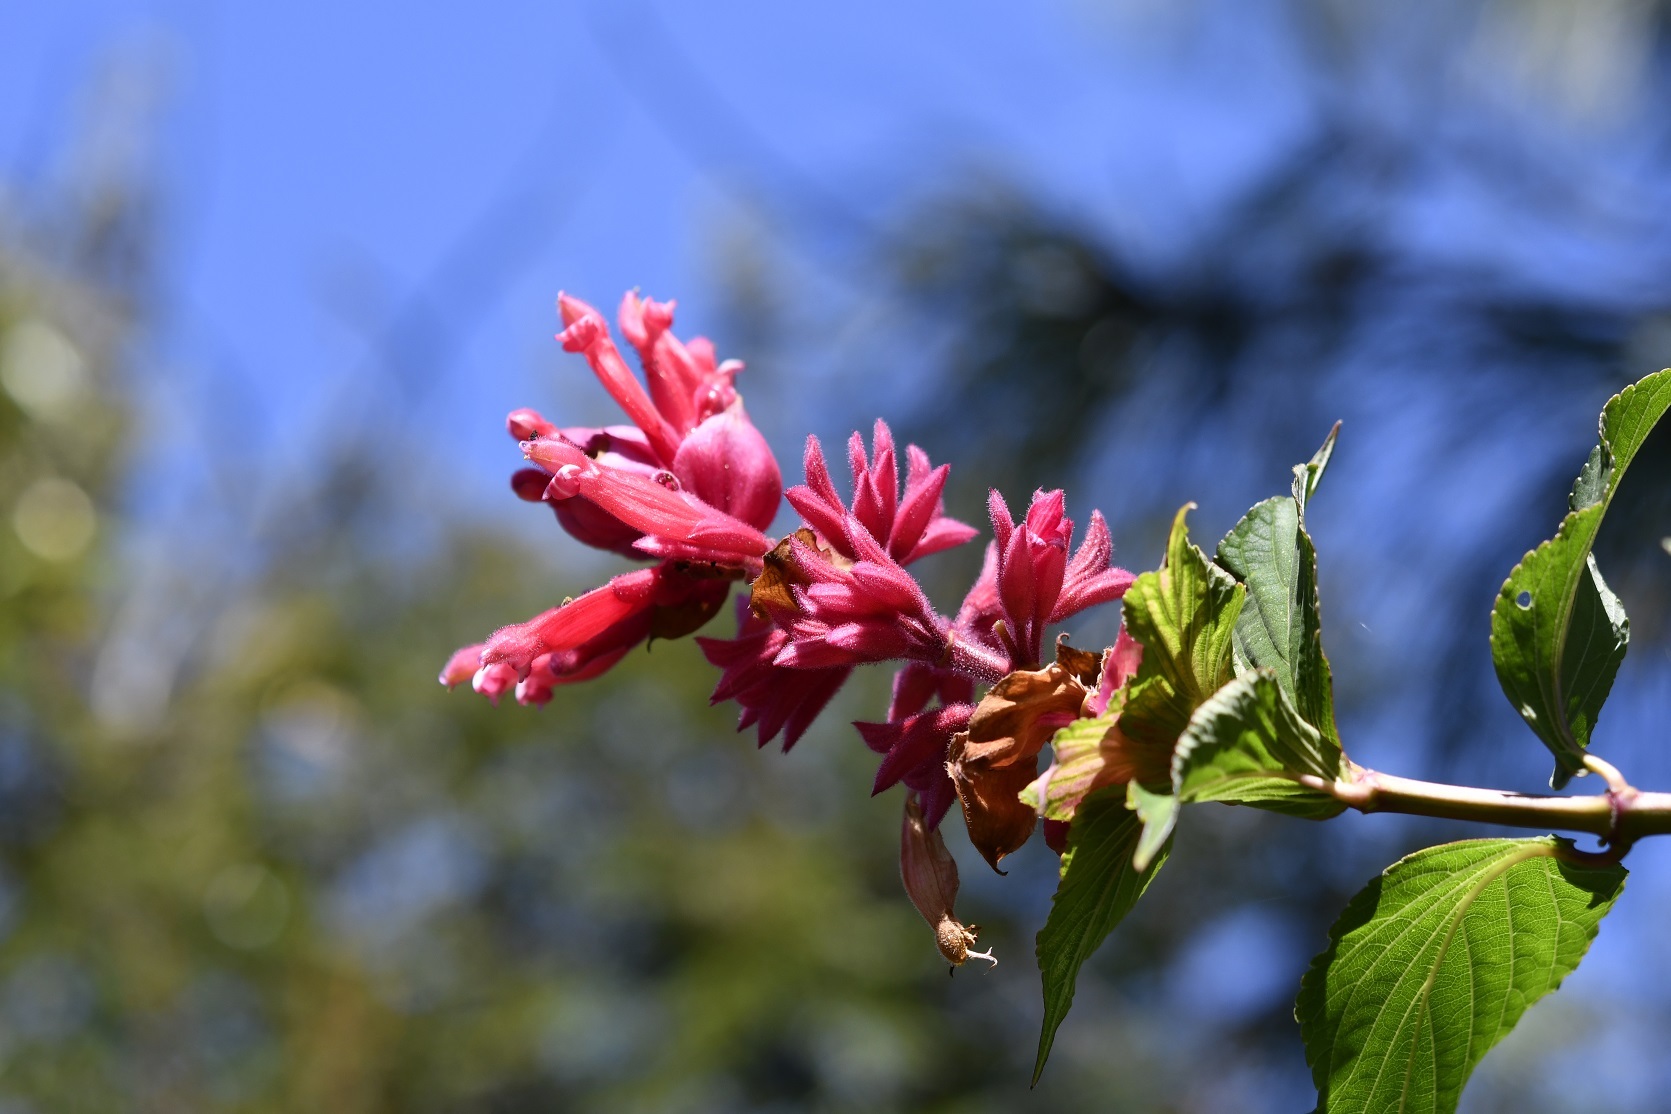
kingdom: Plantae
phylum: Tracheophyta
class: Magnoliopsida
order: Lamiales
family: Lamiaceae
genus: Salvia
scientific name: Salvia wagneriana
